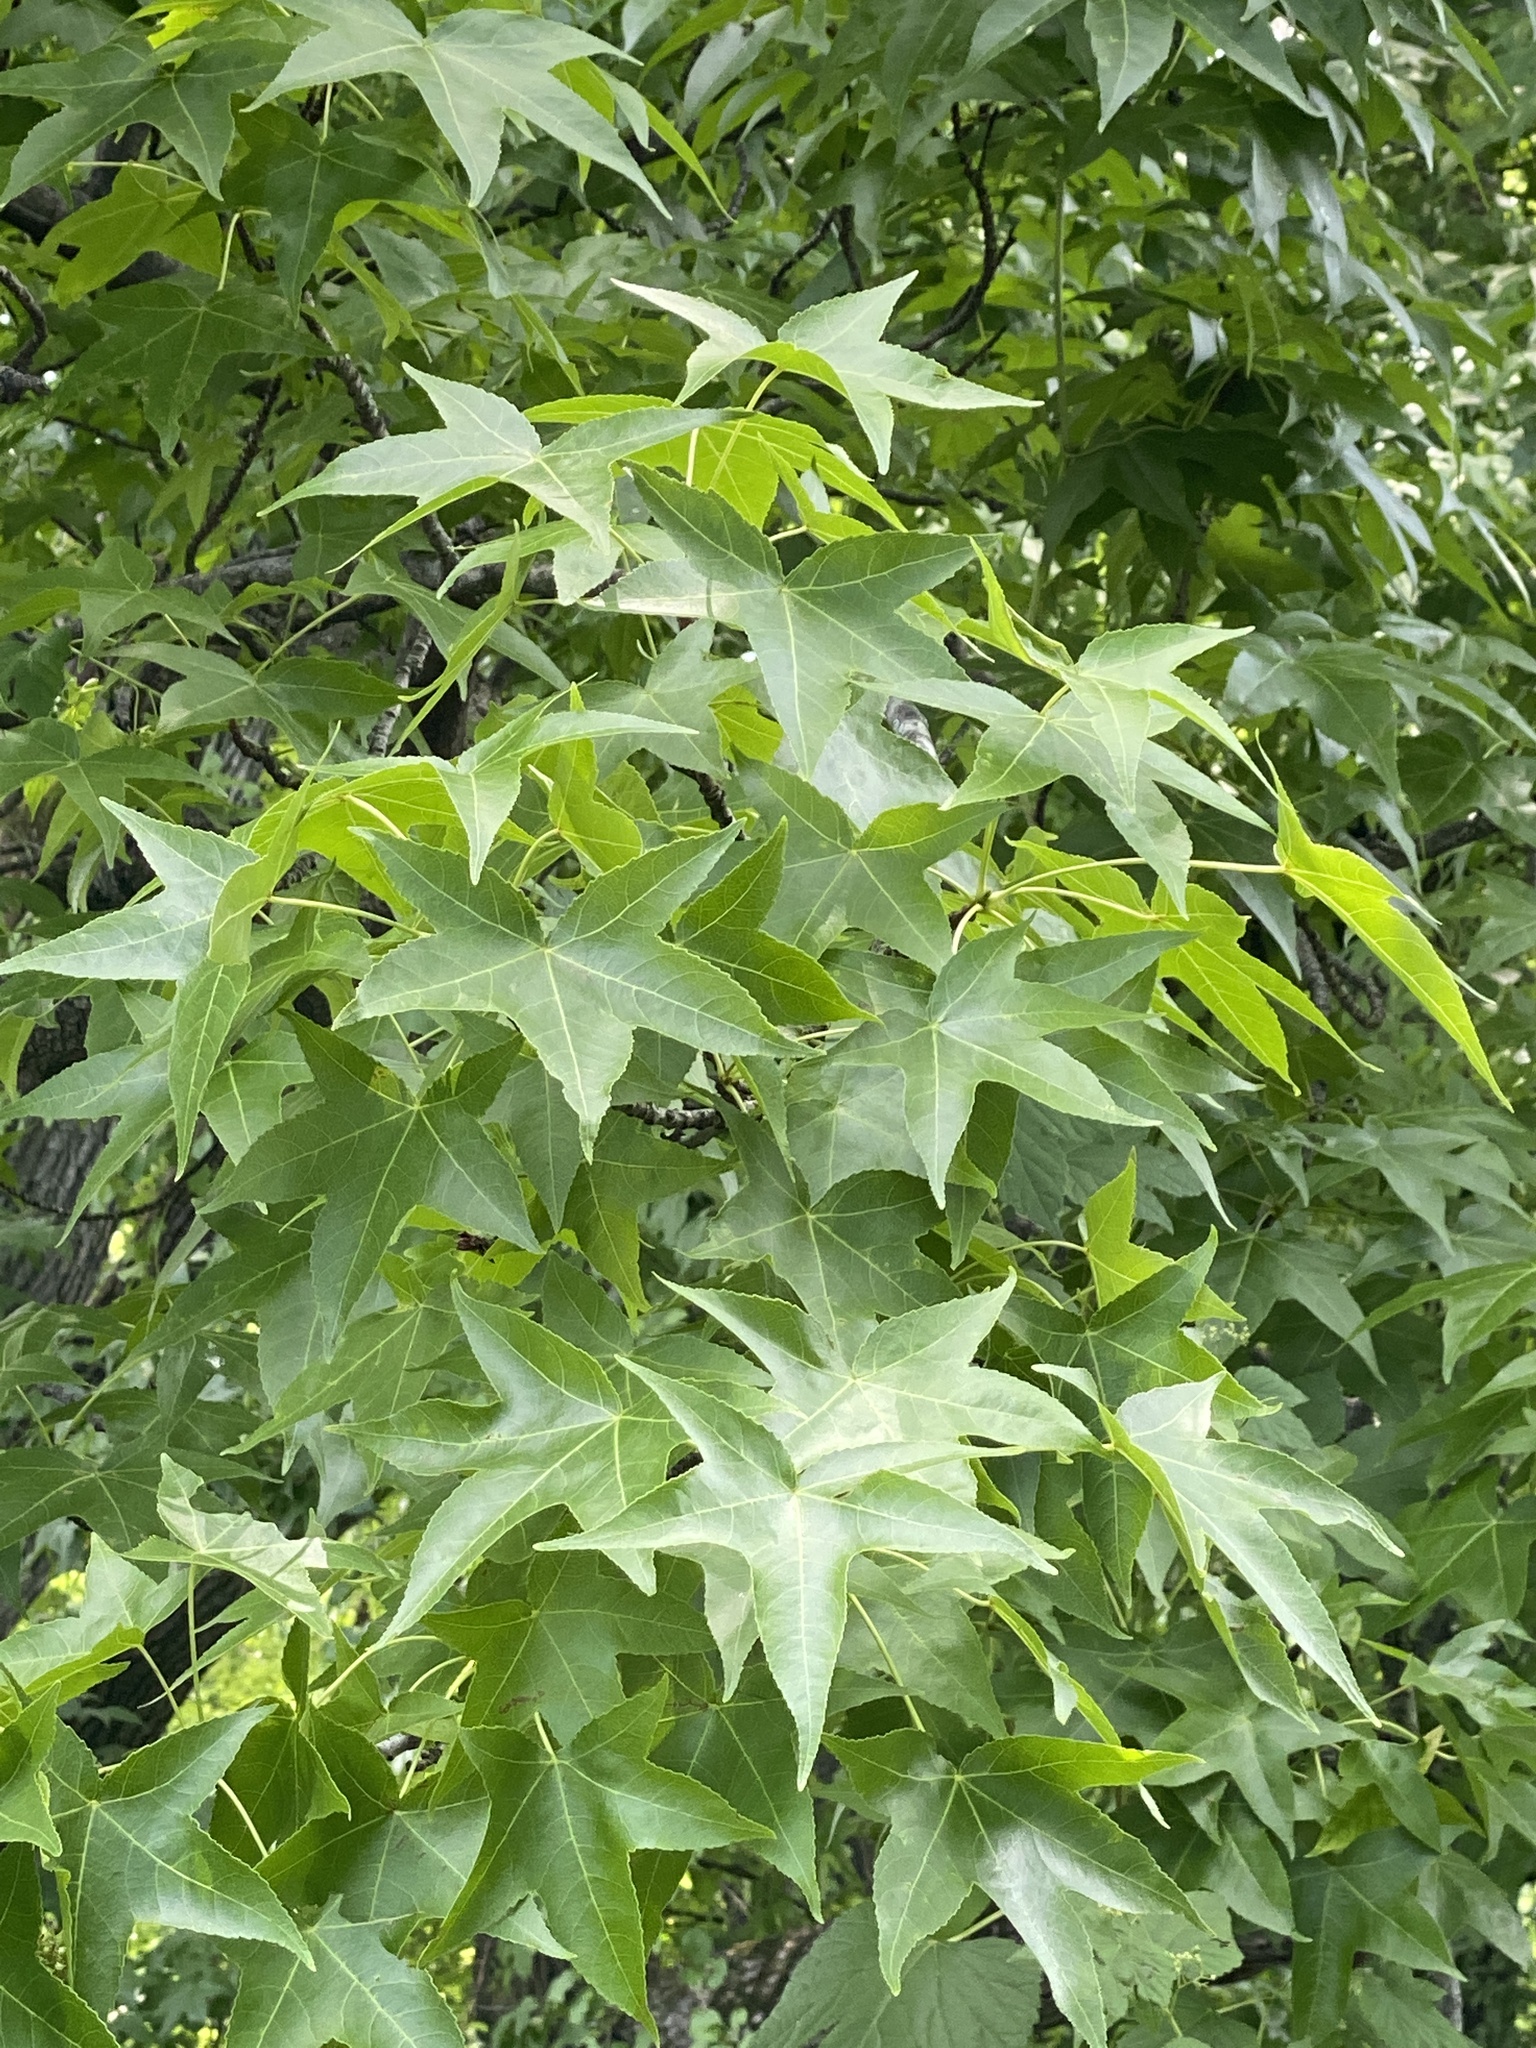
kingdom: Plantae
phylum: Tracheophyta
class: Magnoliopsida
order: Saxifragales
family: Altingiaceae
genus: Liquidambar
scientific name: Liquidambar styraciflua
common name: Sweet gum
